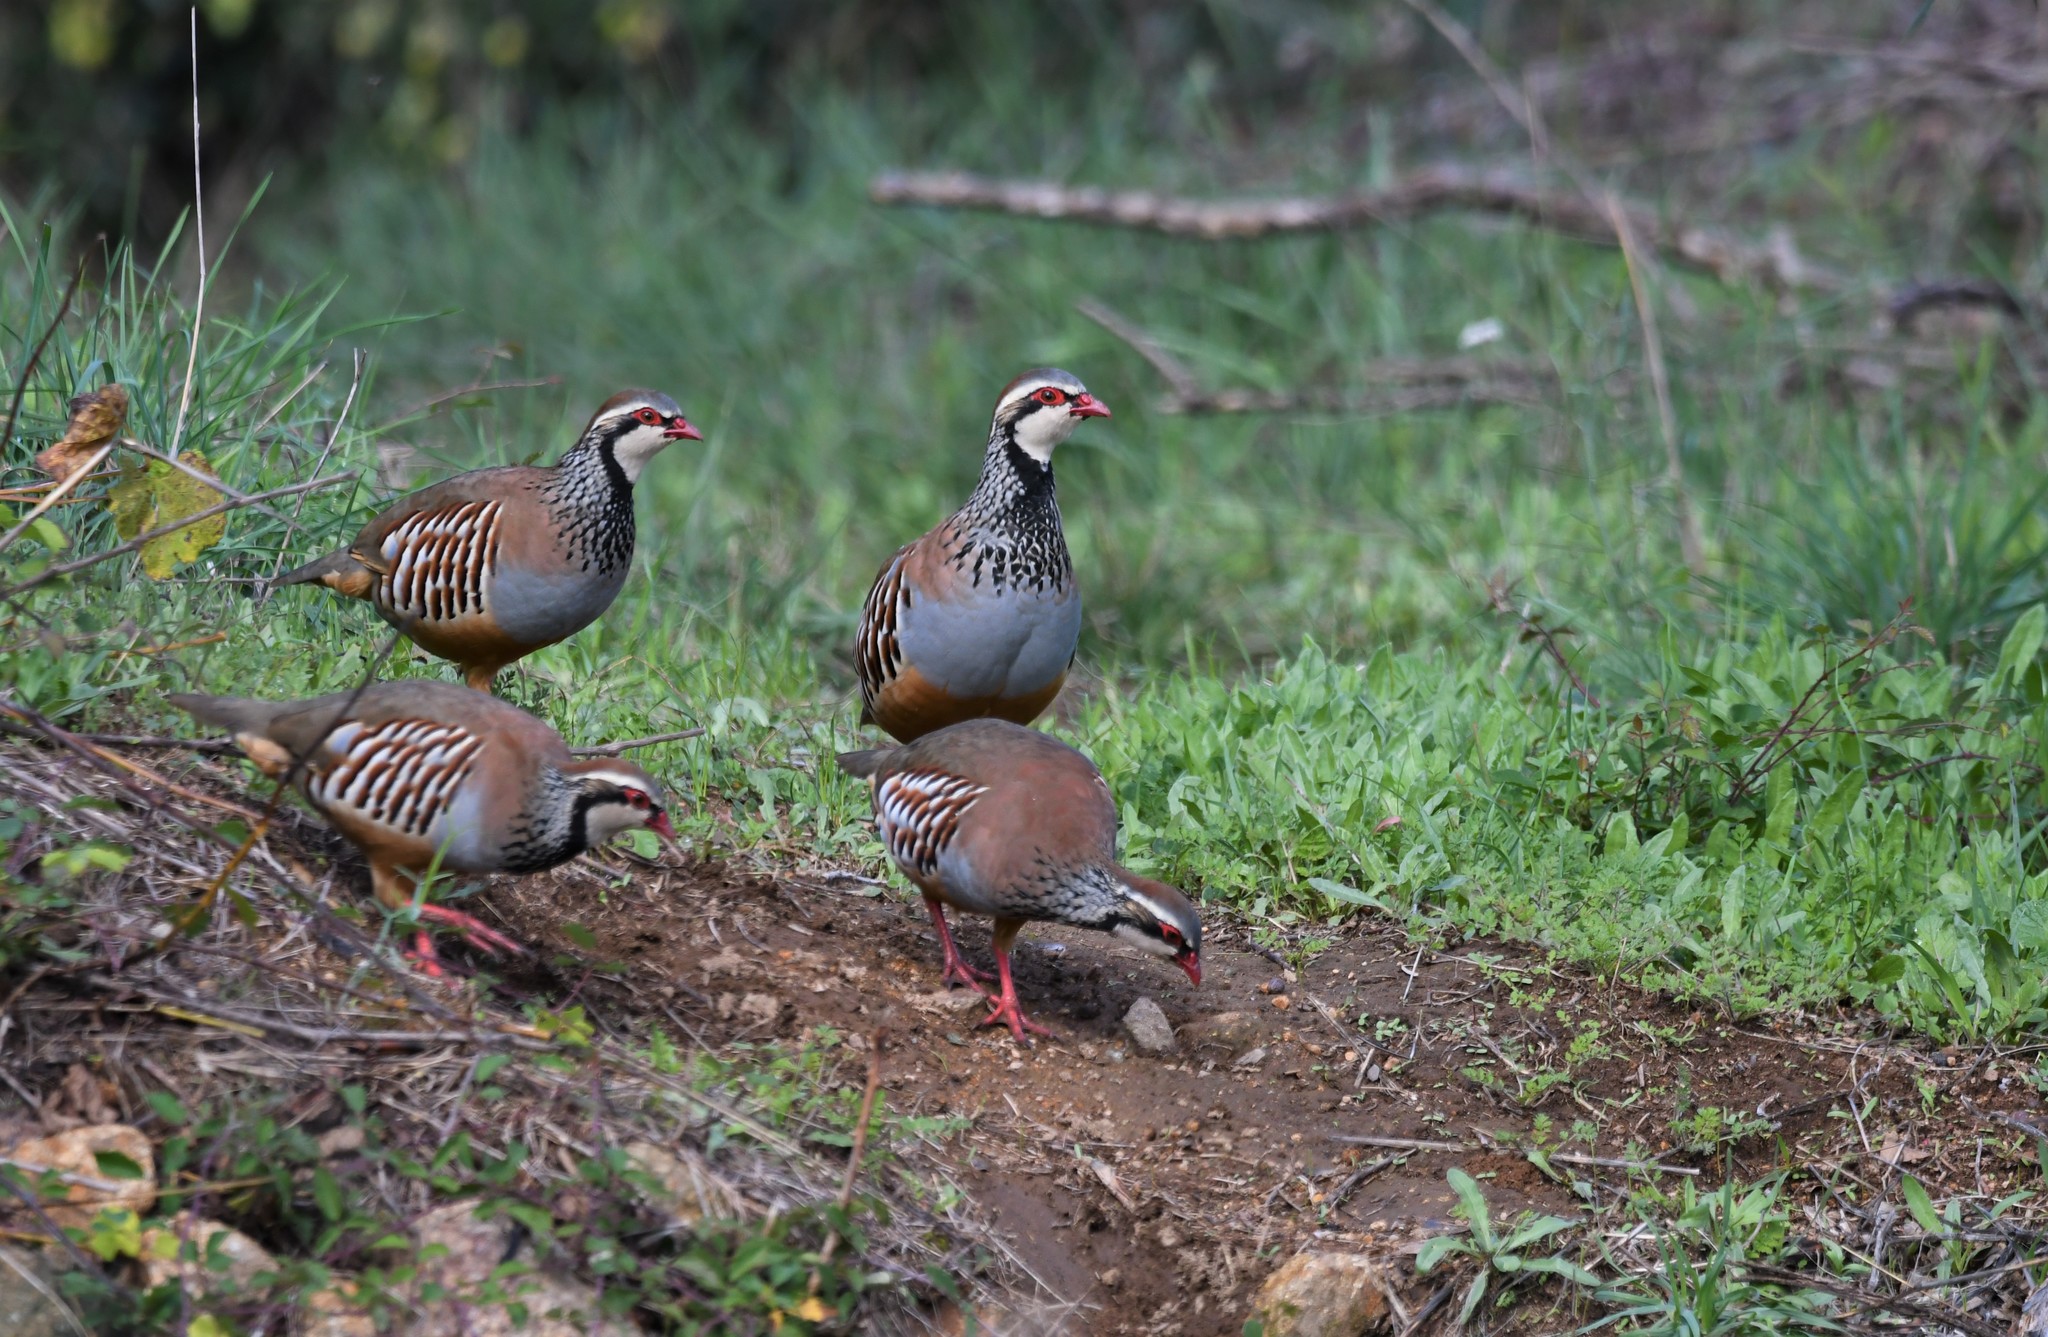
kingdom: Animalia
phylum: Chordata
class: Aves
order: Galliformes
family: Phasianidae
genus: Alectoris
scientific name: Alectoris rufa
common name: Red-legged partridge
